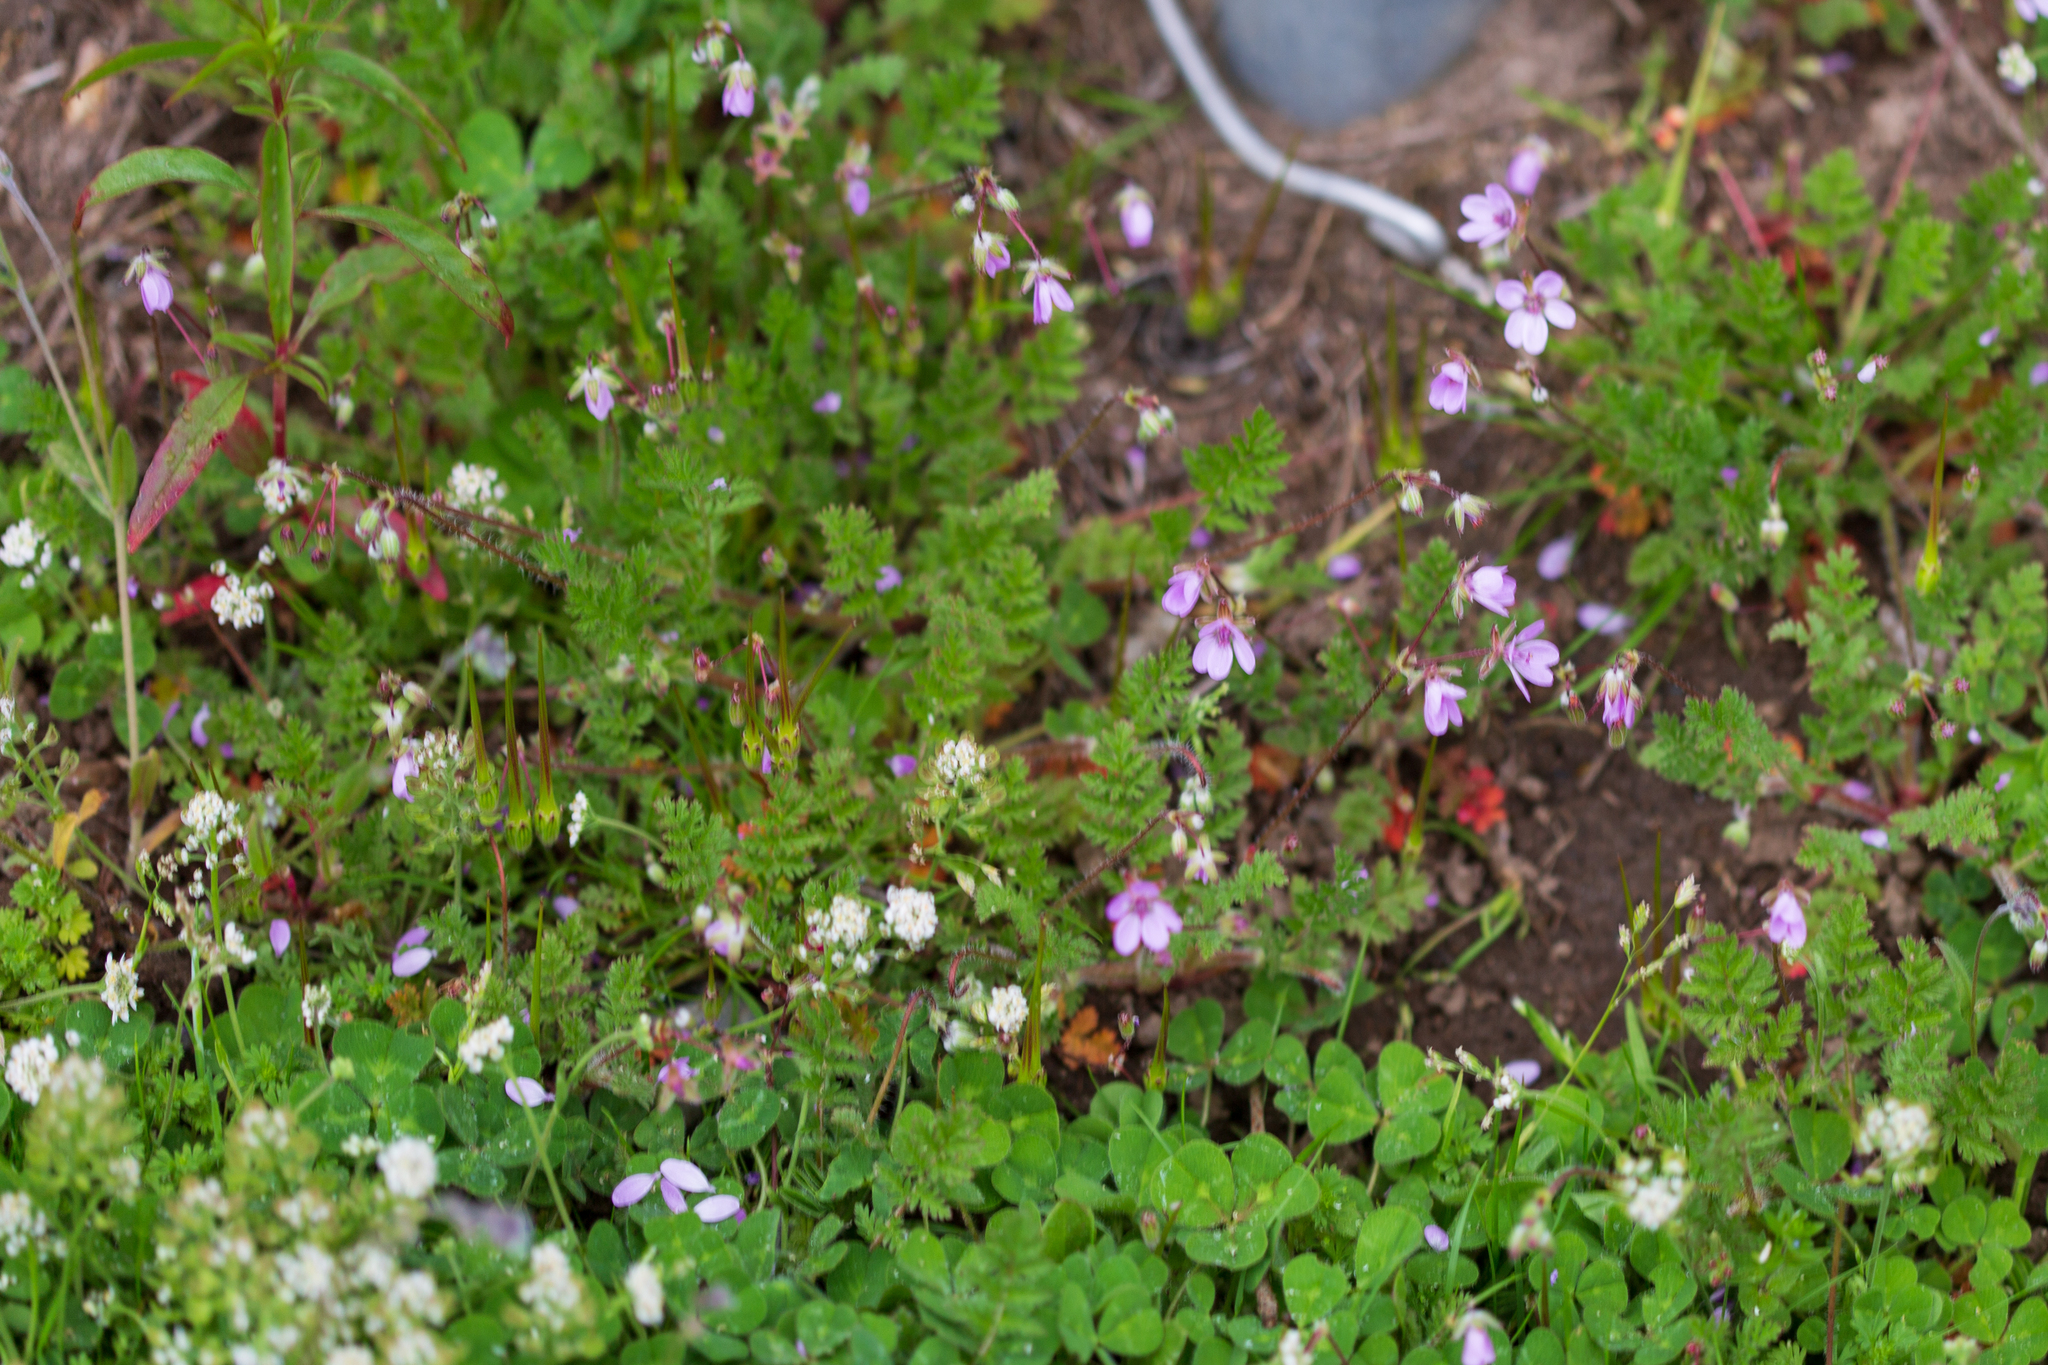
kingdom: Plantae
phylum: Tracheophyta
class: Magnoliopsida
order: Geraniales
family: Geraniaceae
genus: Erodium
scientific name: Erodium cicutarium
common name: Common stork's-bill
